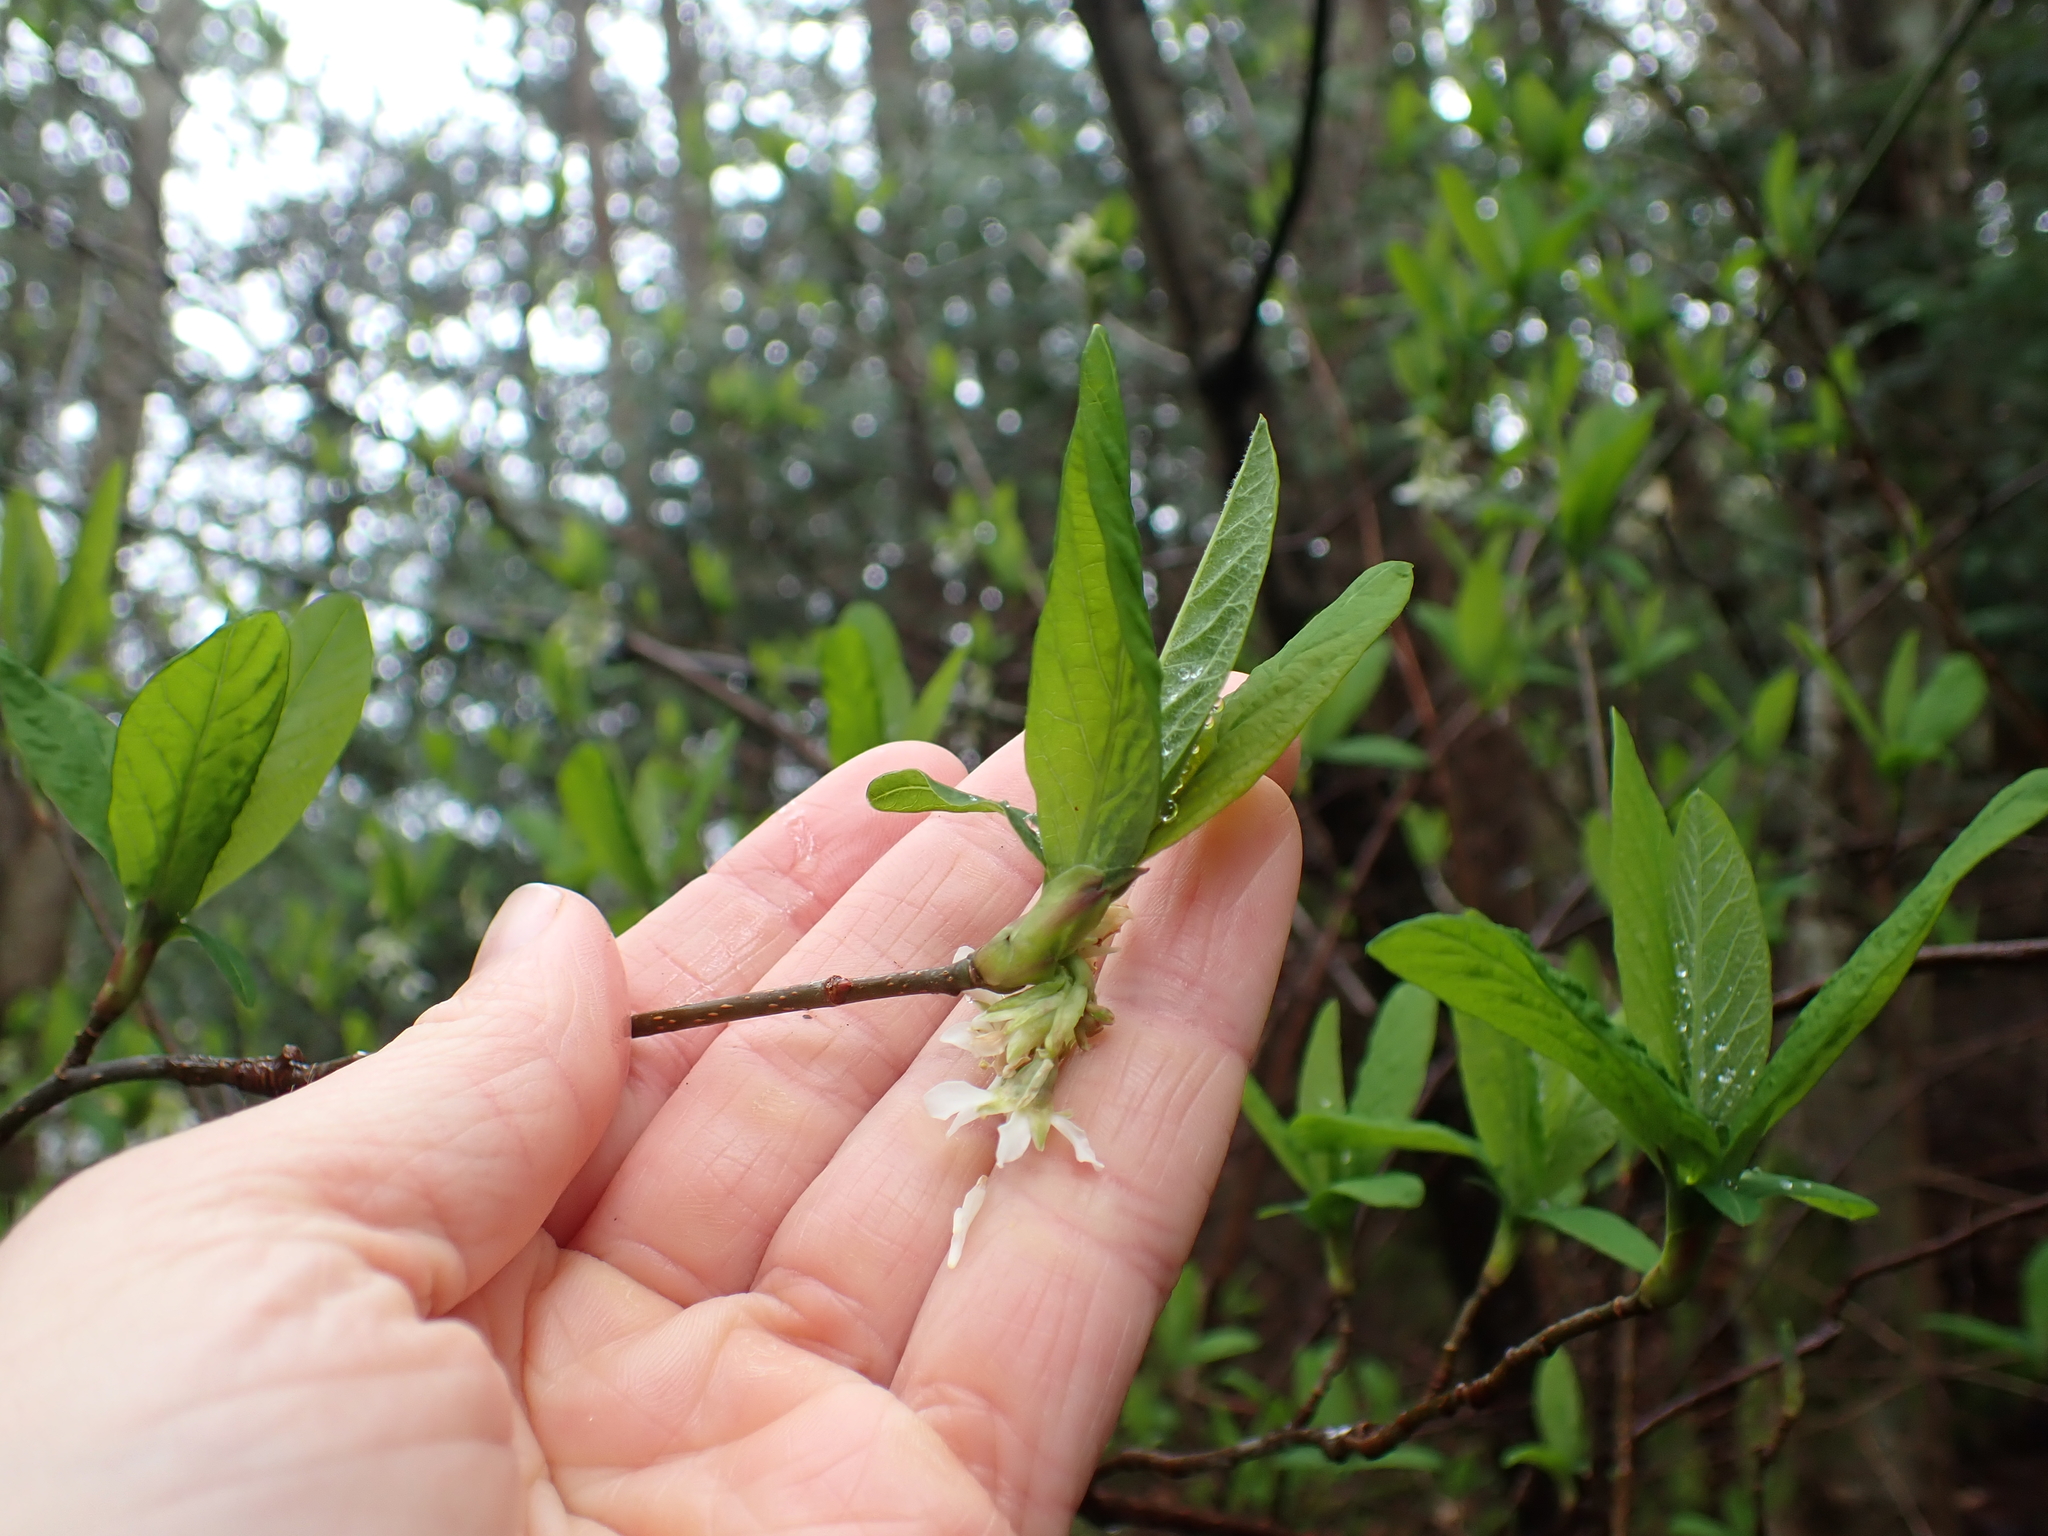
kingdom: Plantae
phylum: Tracheophyta
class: Magnoliopsida
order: Rosales
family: Rosaceae
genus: Oemleria
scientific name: Oemleria cerasiformis
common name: Osoberry
